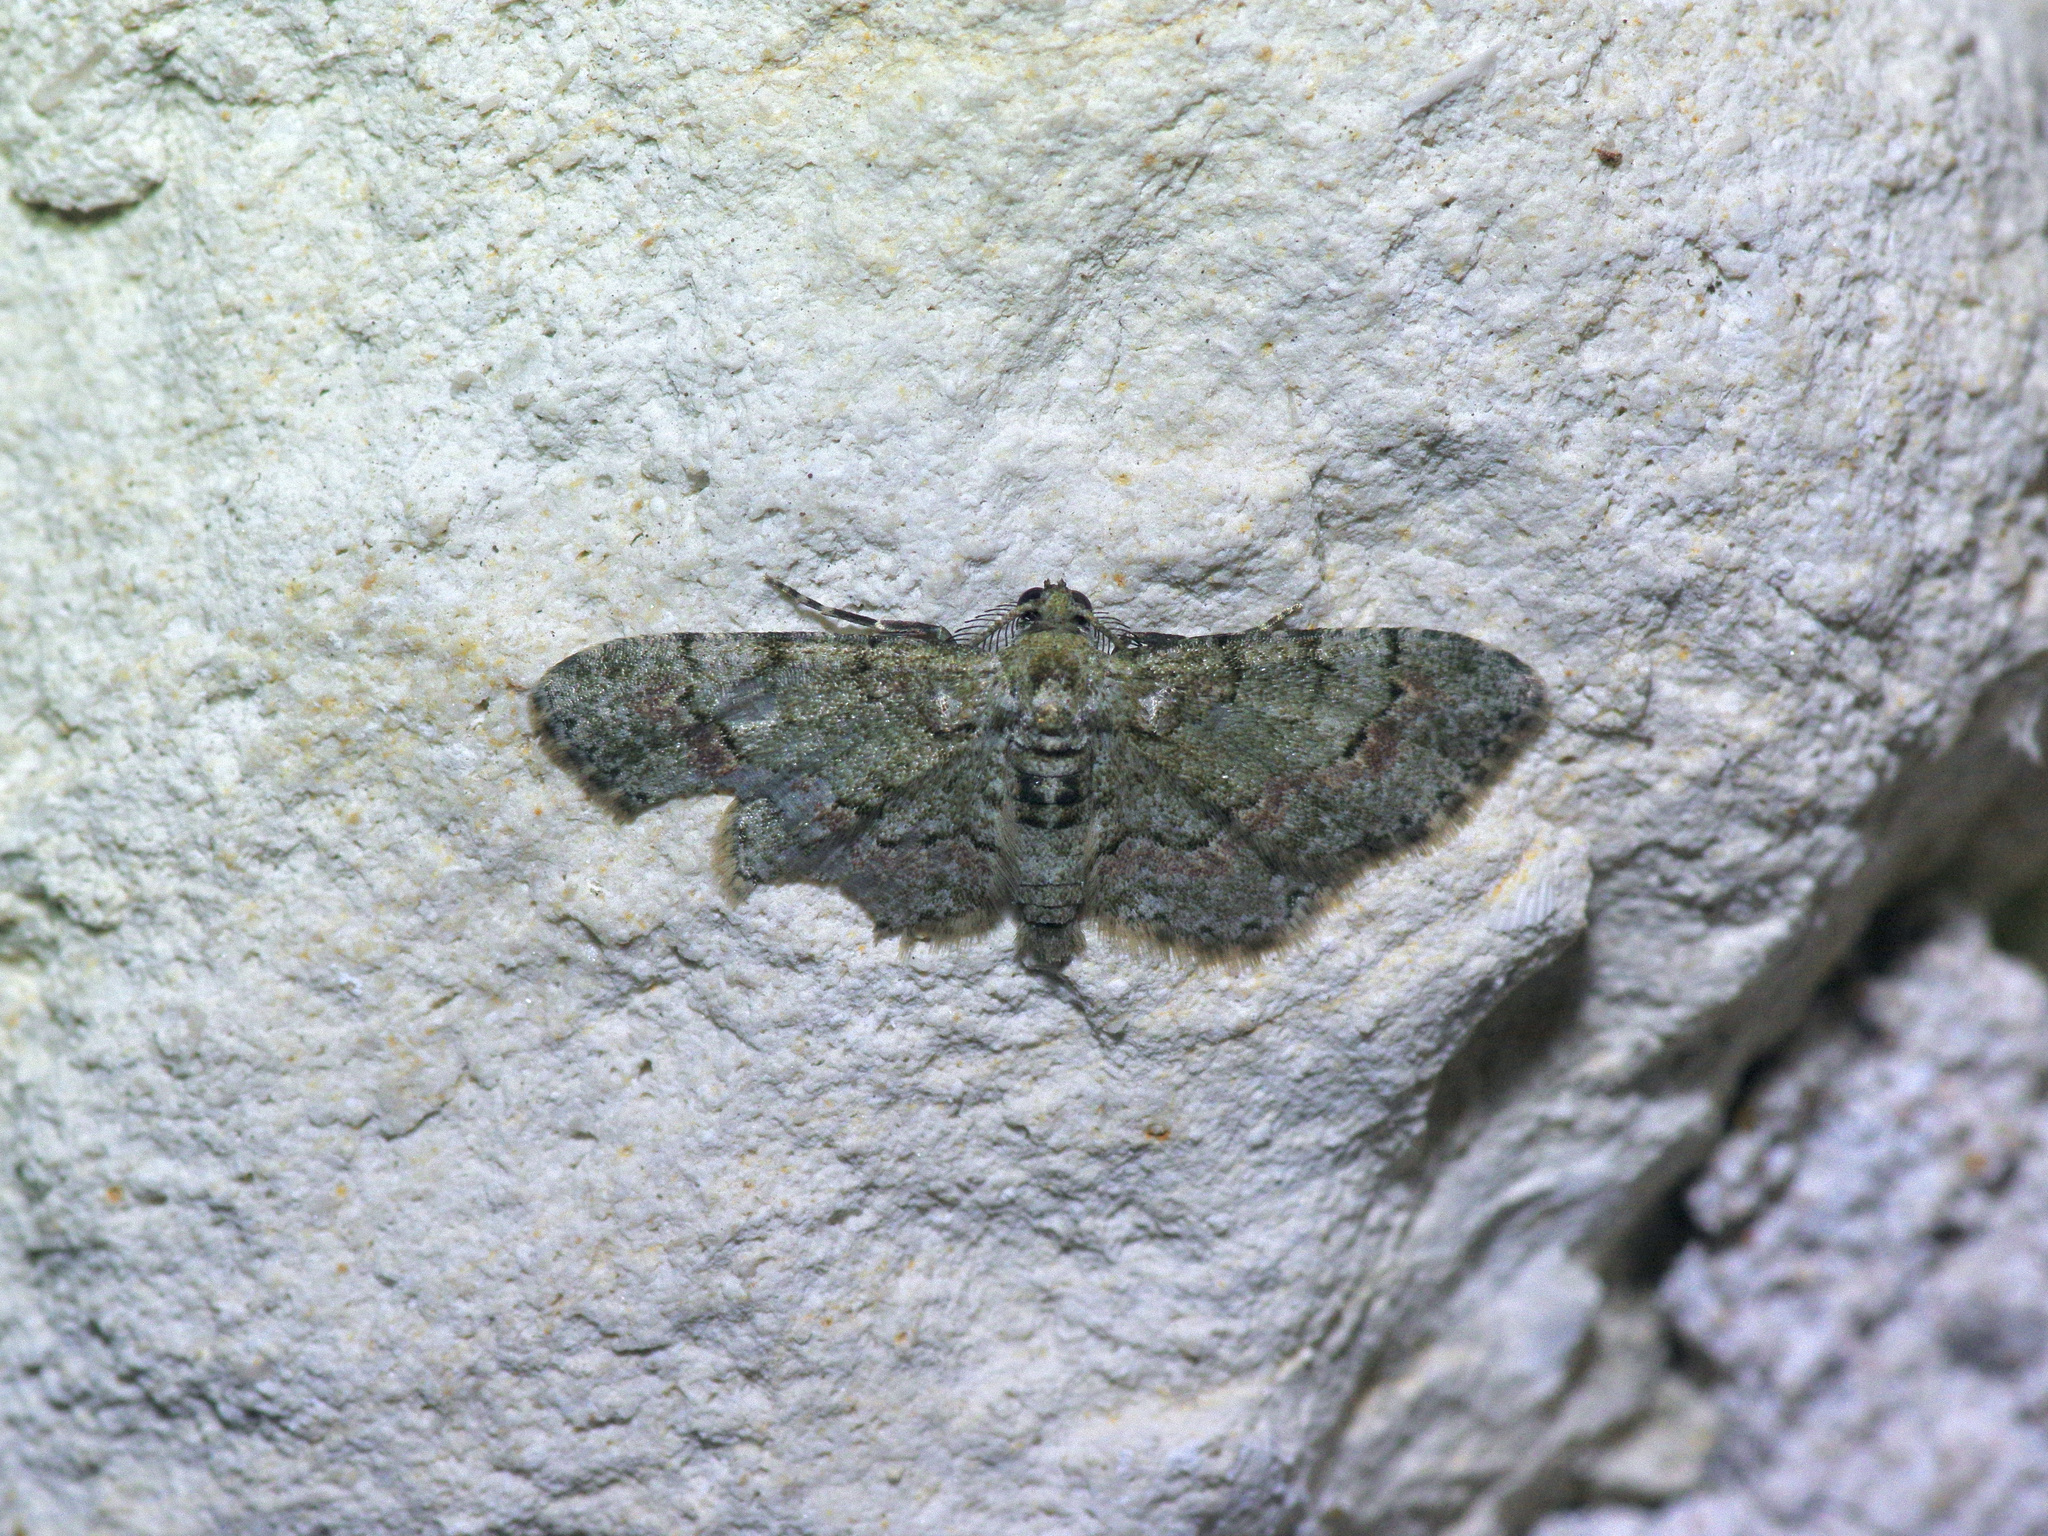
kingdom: Animalia
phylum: Arthropoda
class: Insecta
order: Lepidoptera
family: Geometridae
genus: Glenoides
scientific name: Glenoides texanaria
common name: Texas gray
